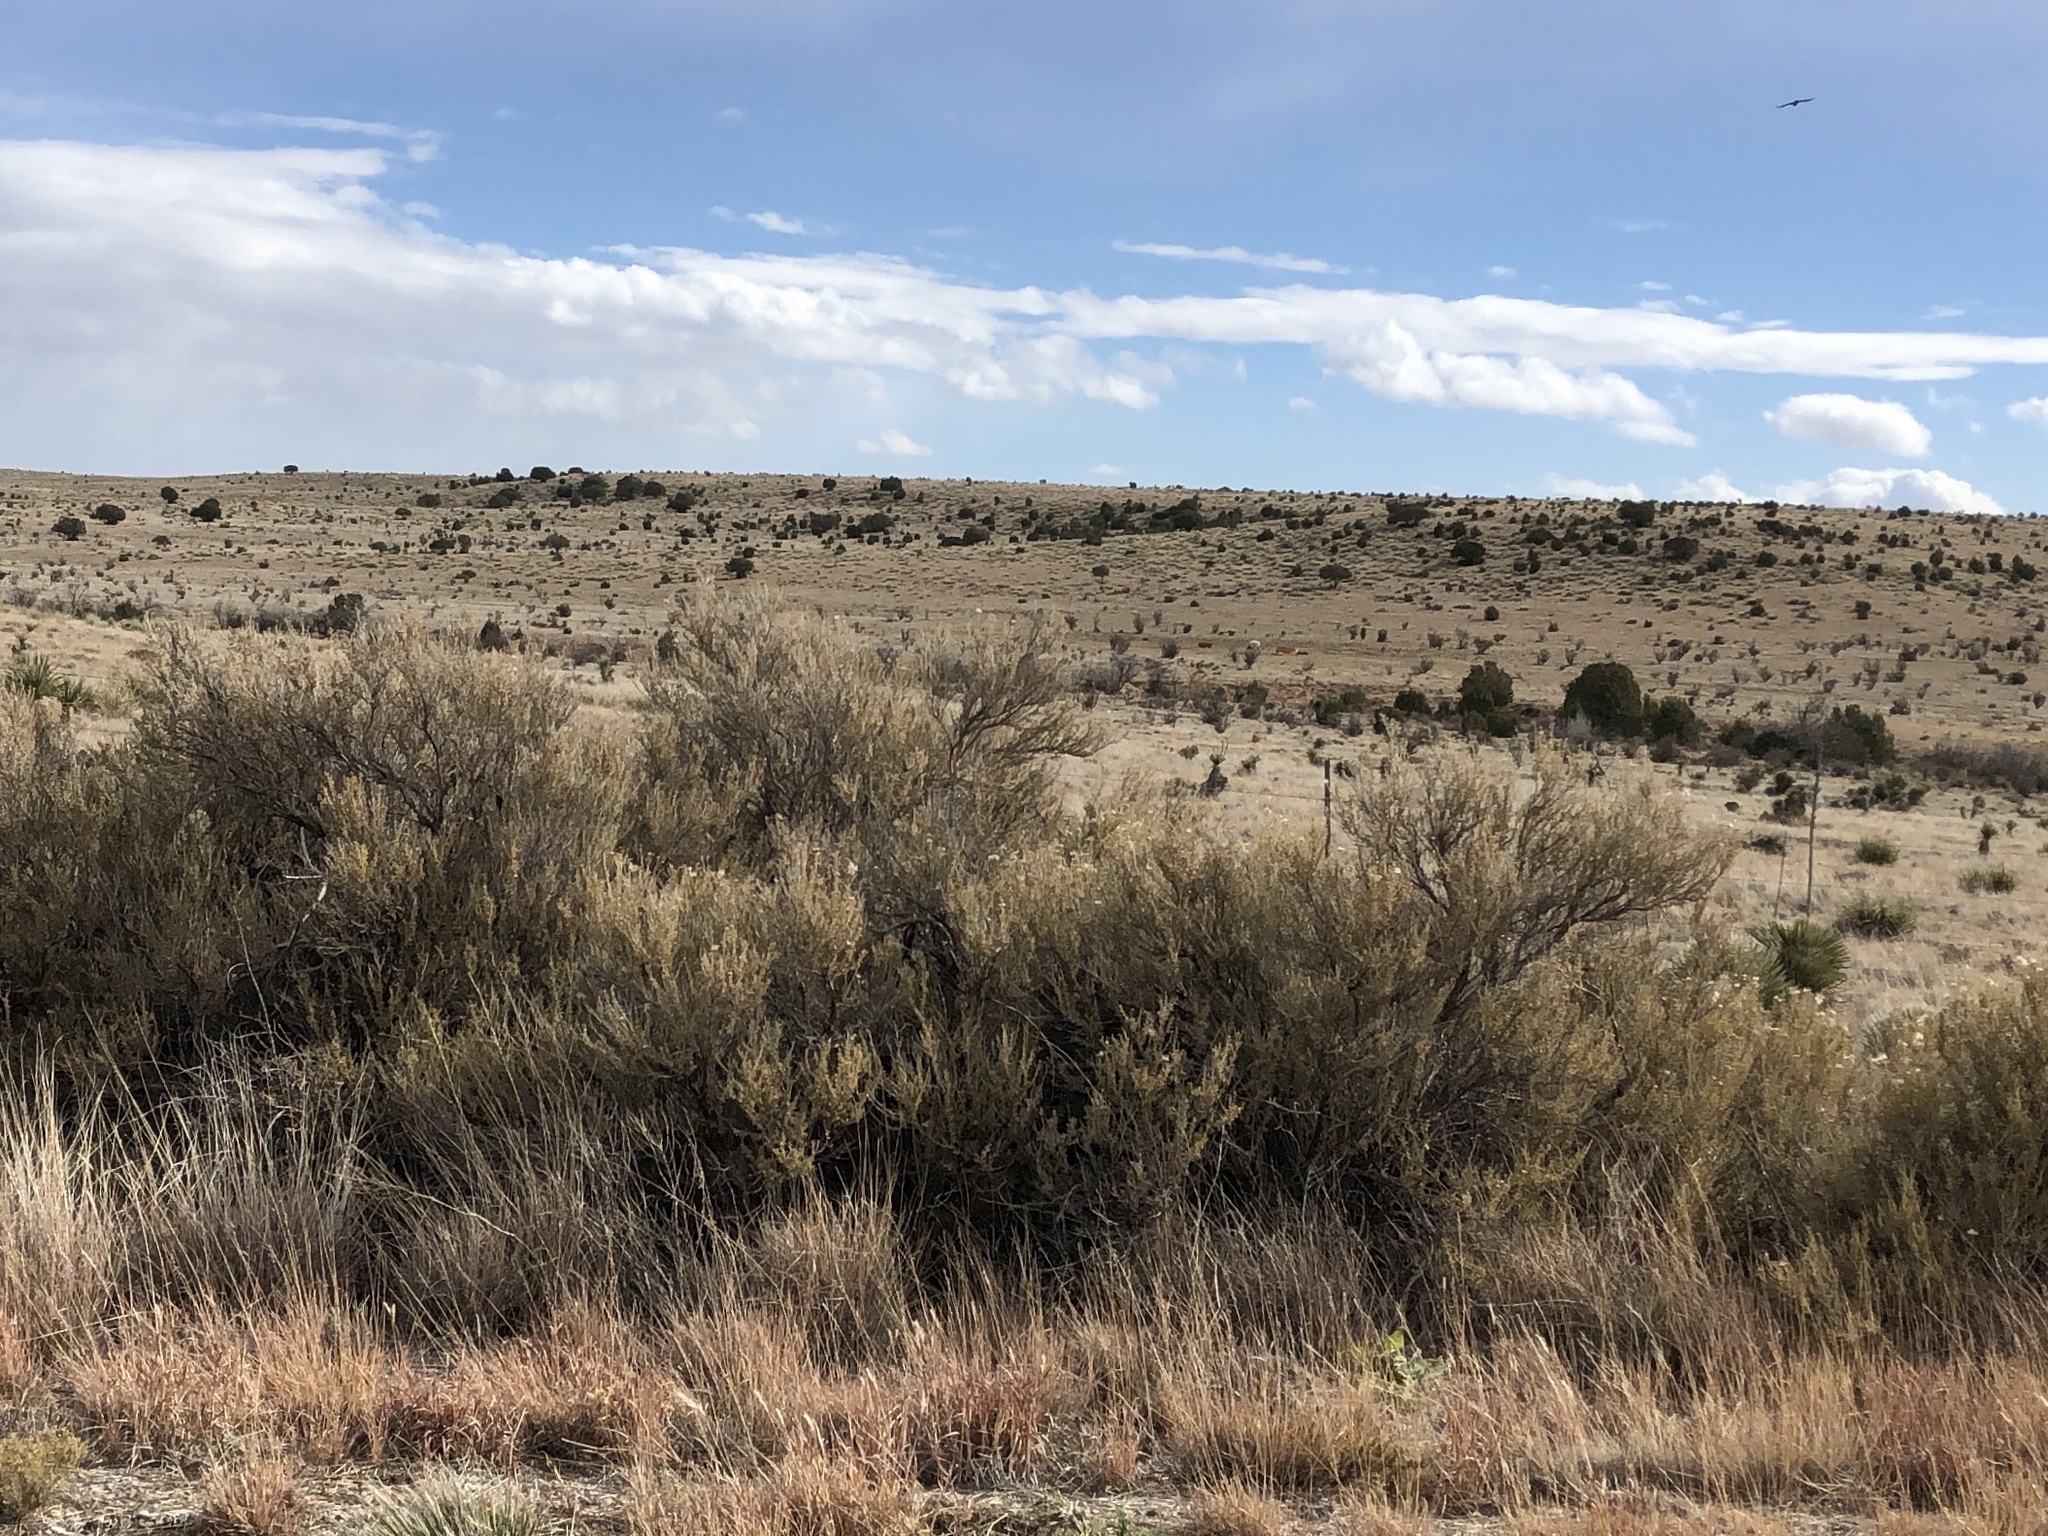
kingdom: Plantae
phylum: Tracheophyta
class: Magnoliopsida
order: Rosales
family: Rosaceae
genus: Fallugia
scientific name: Fallugia paradoxa
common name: Apache-plume
